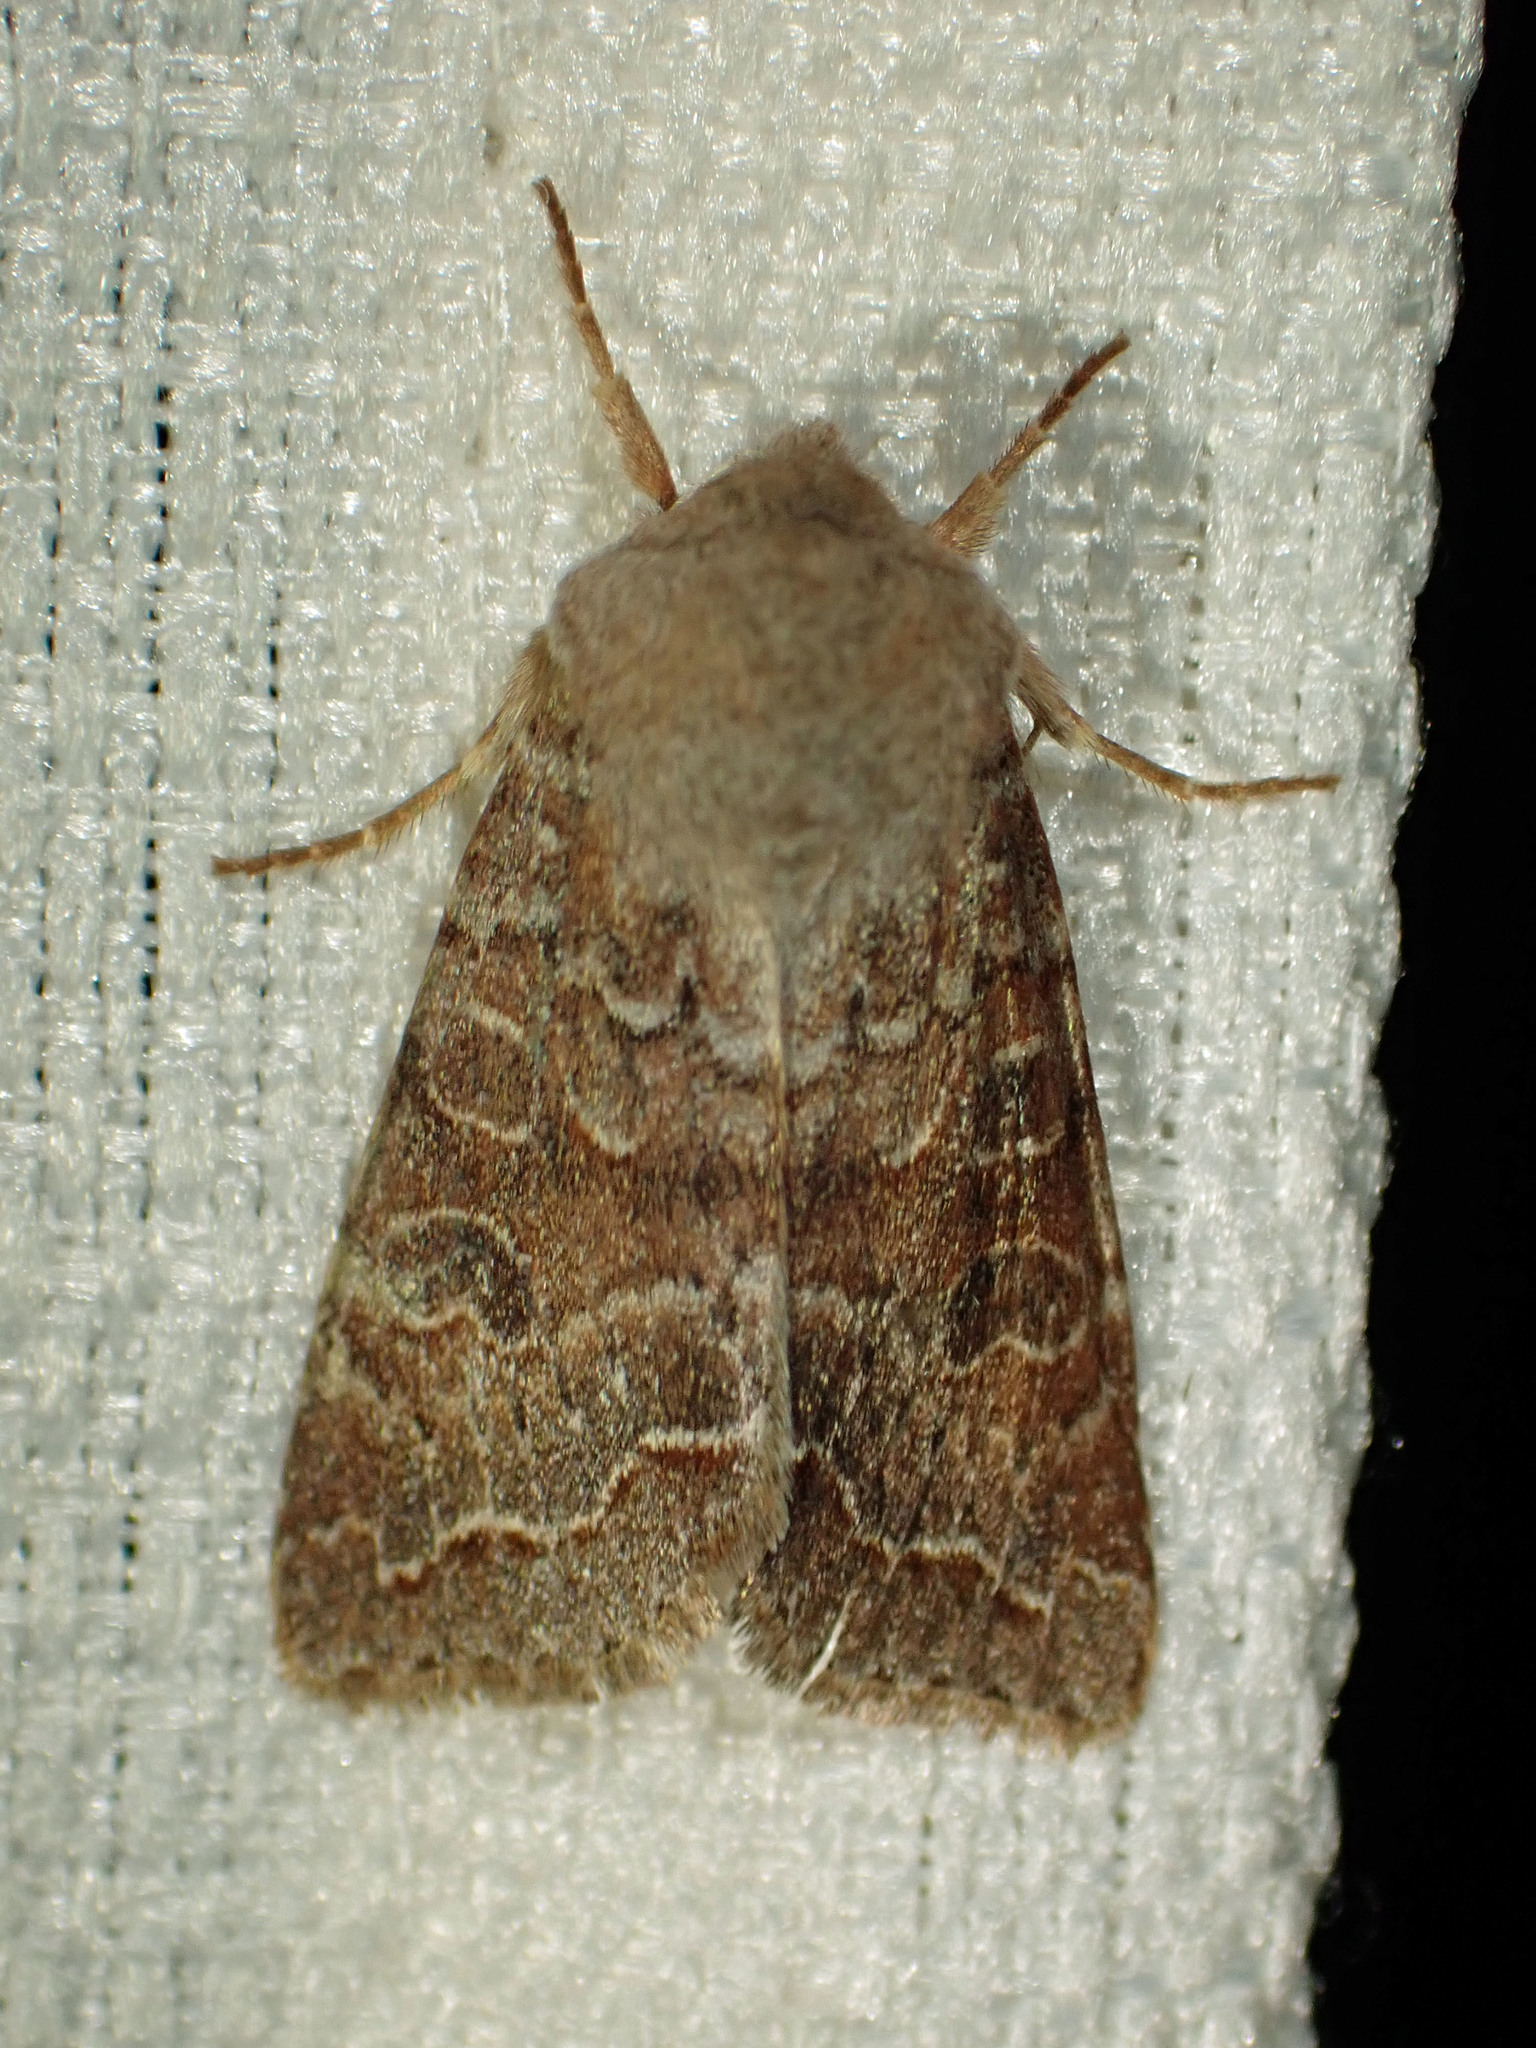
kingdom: Animalia
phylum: Arthropoda
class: Insecta
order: Lepidoptera
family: Noctuidae
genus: Orthosia
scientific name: Orthosia revicta
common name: Rusty whitesided caterpillar
